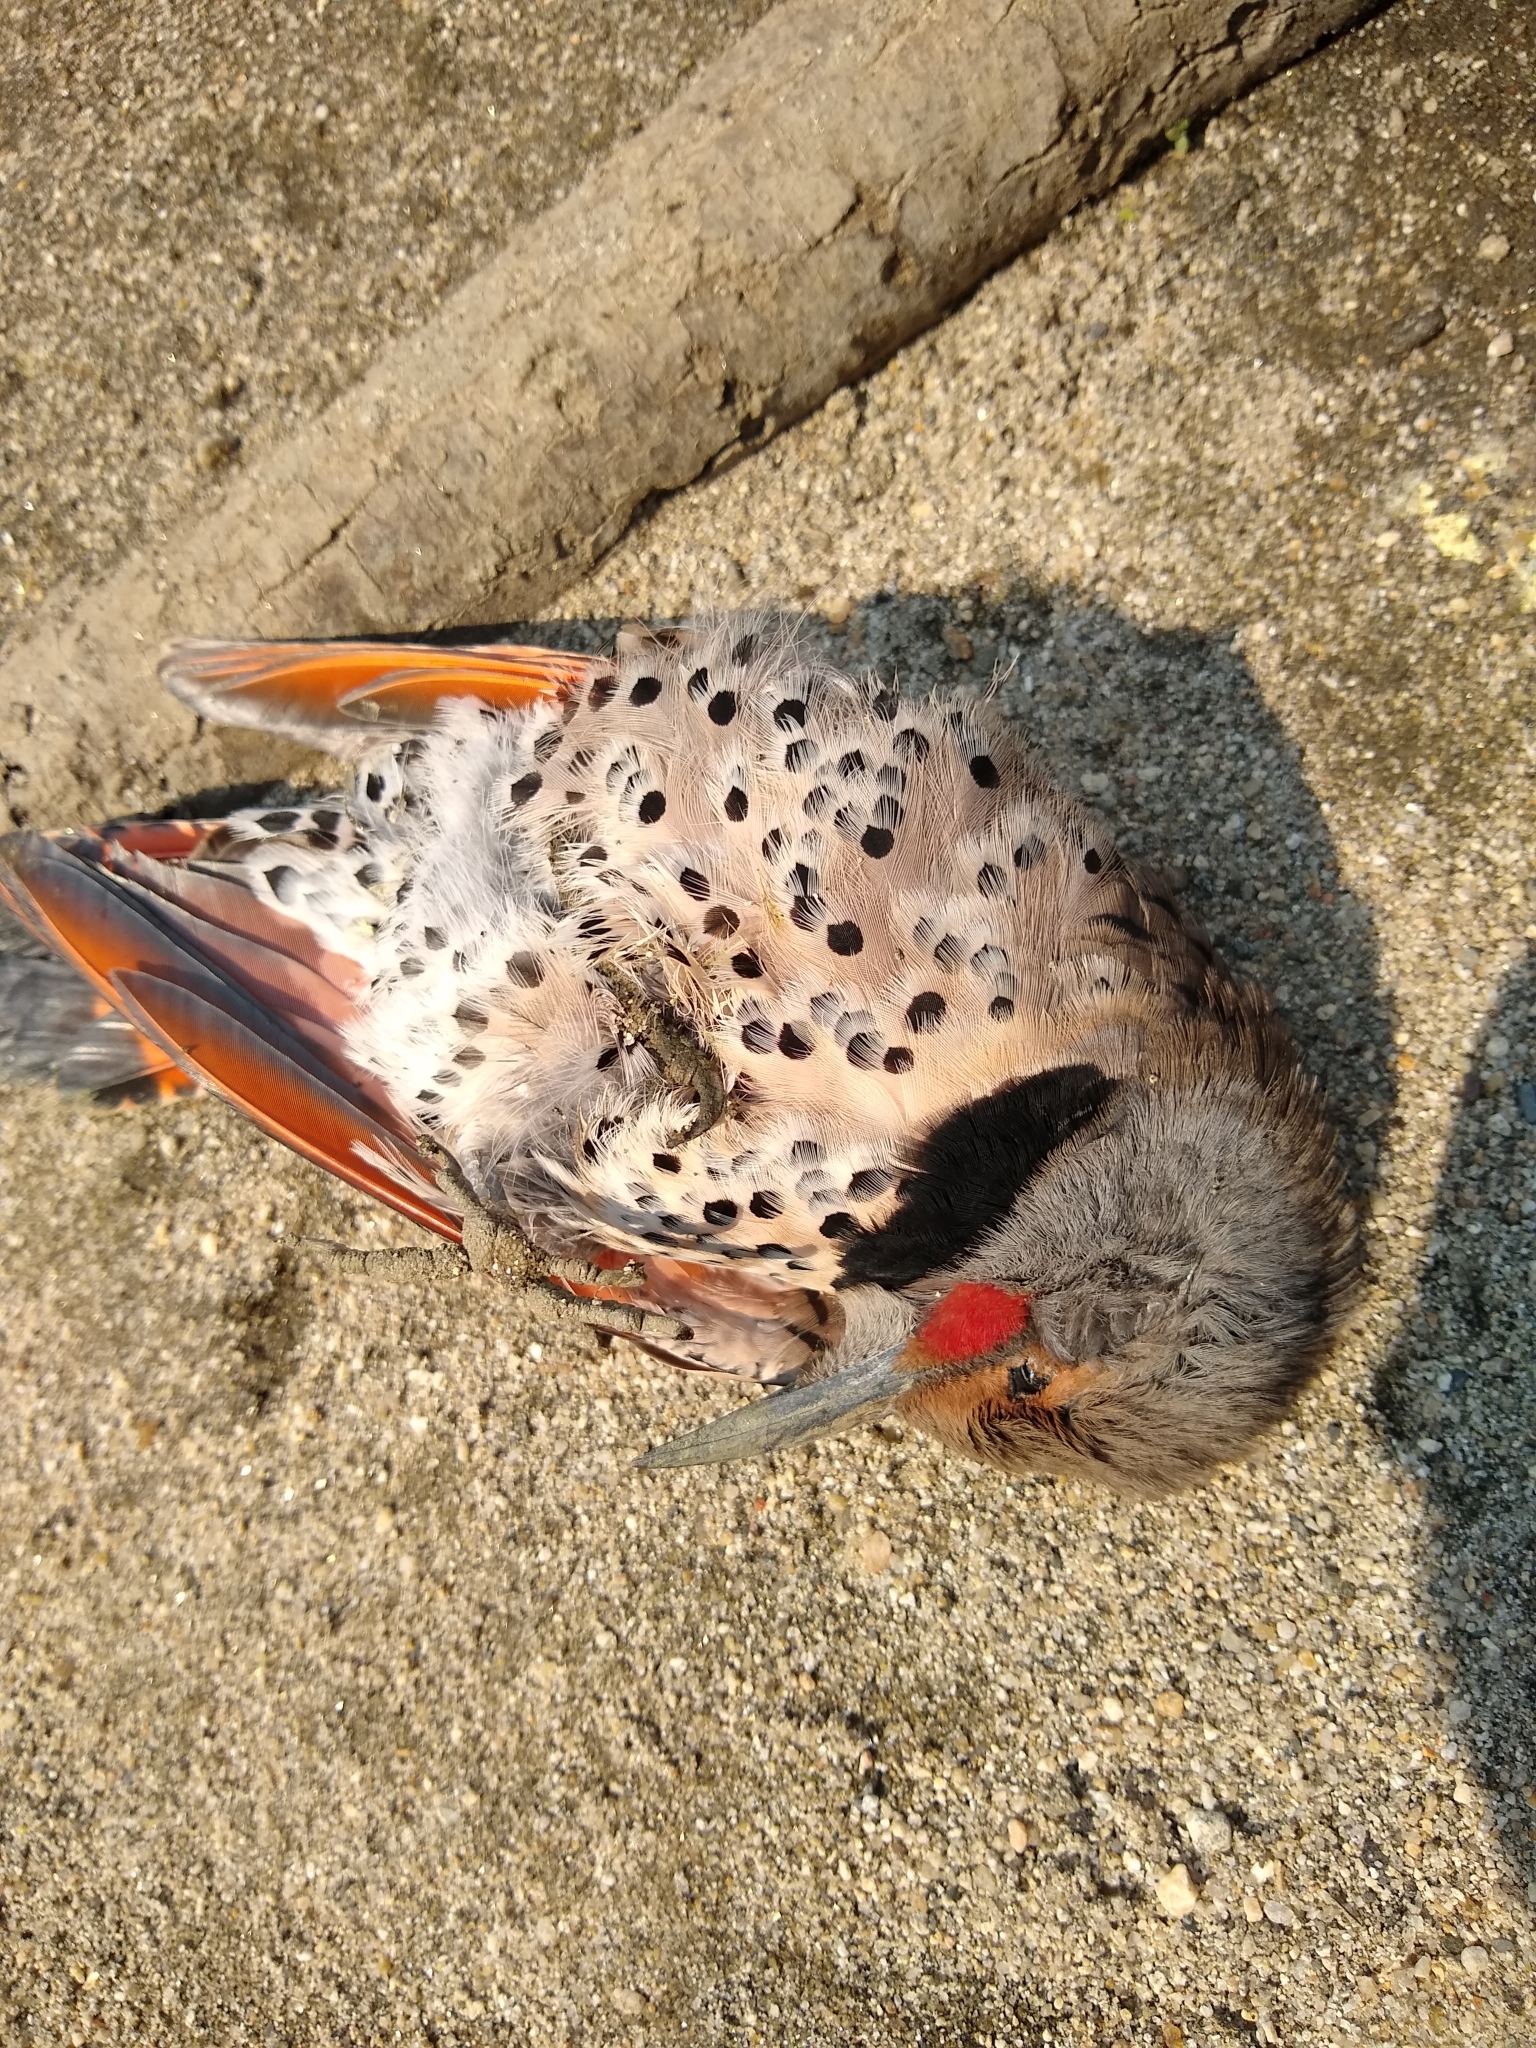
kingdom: Animalia
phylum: Chordata
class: Aves
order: Piciformes
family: Picidae
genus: Colaptes
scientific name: Colaptes auratus
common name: Northern flicker
